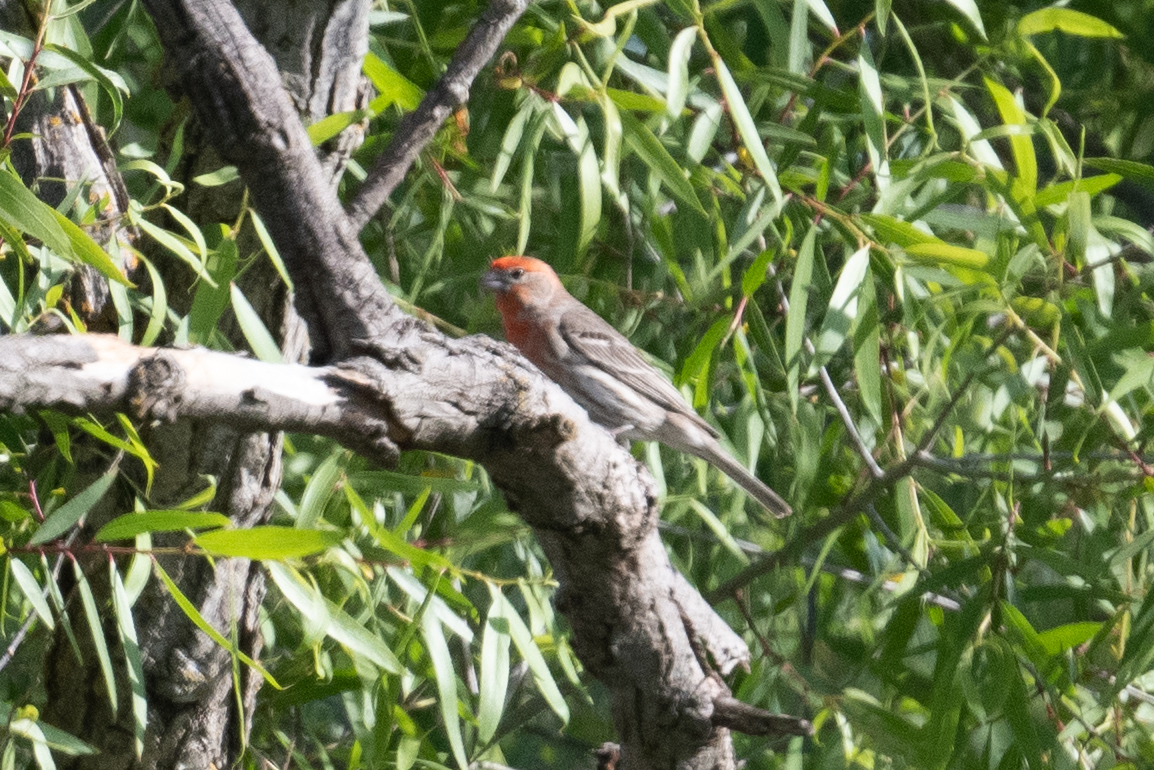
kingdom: Animalia
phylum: Chordata
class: Aves
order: Passeriformes
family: Fringillidae
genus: Haemorhous
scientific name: Haemorhous mexicanus
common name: House finch
